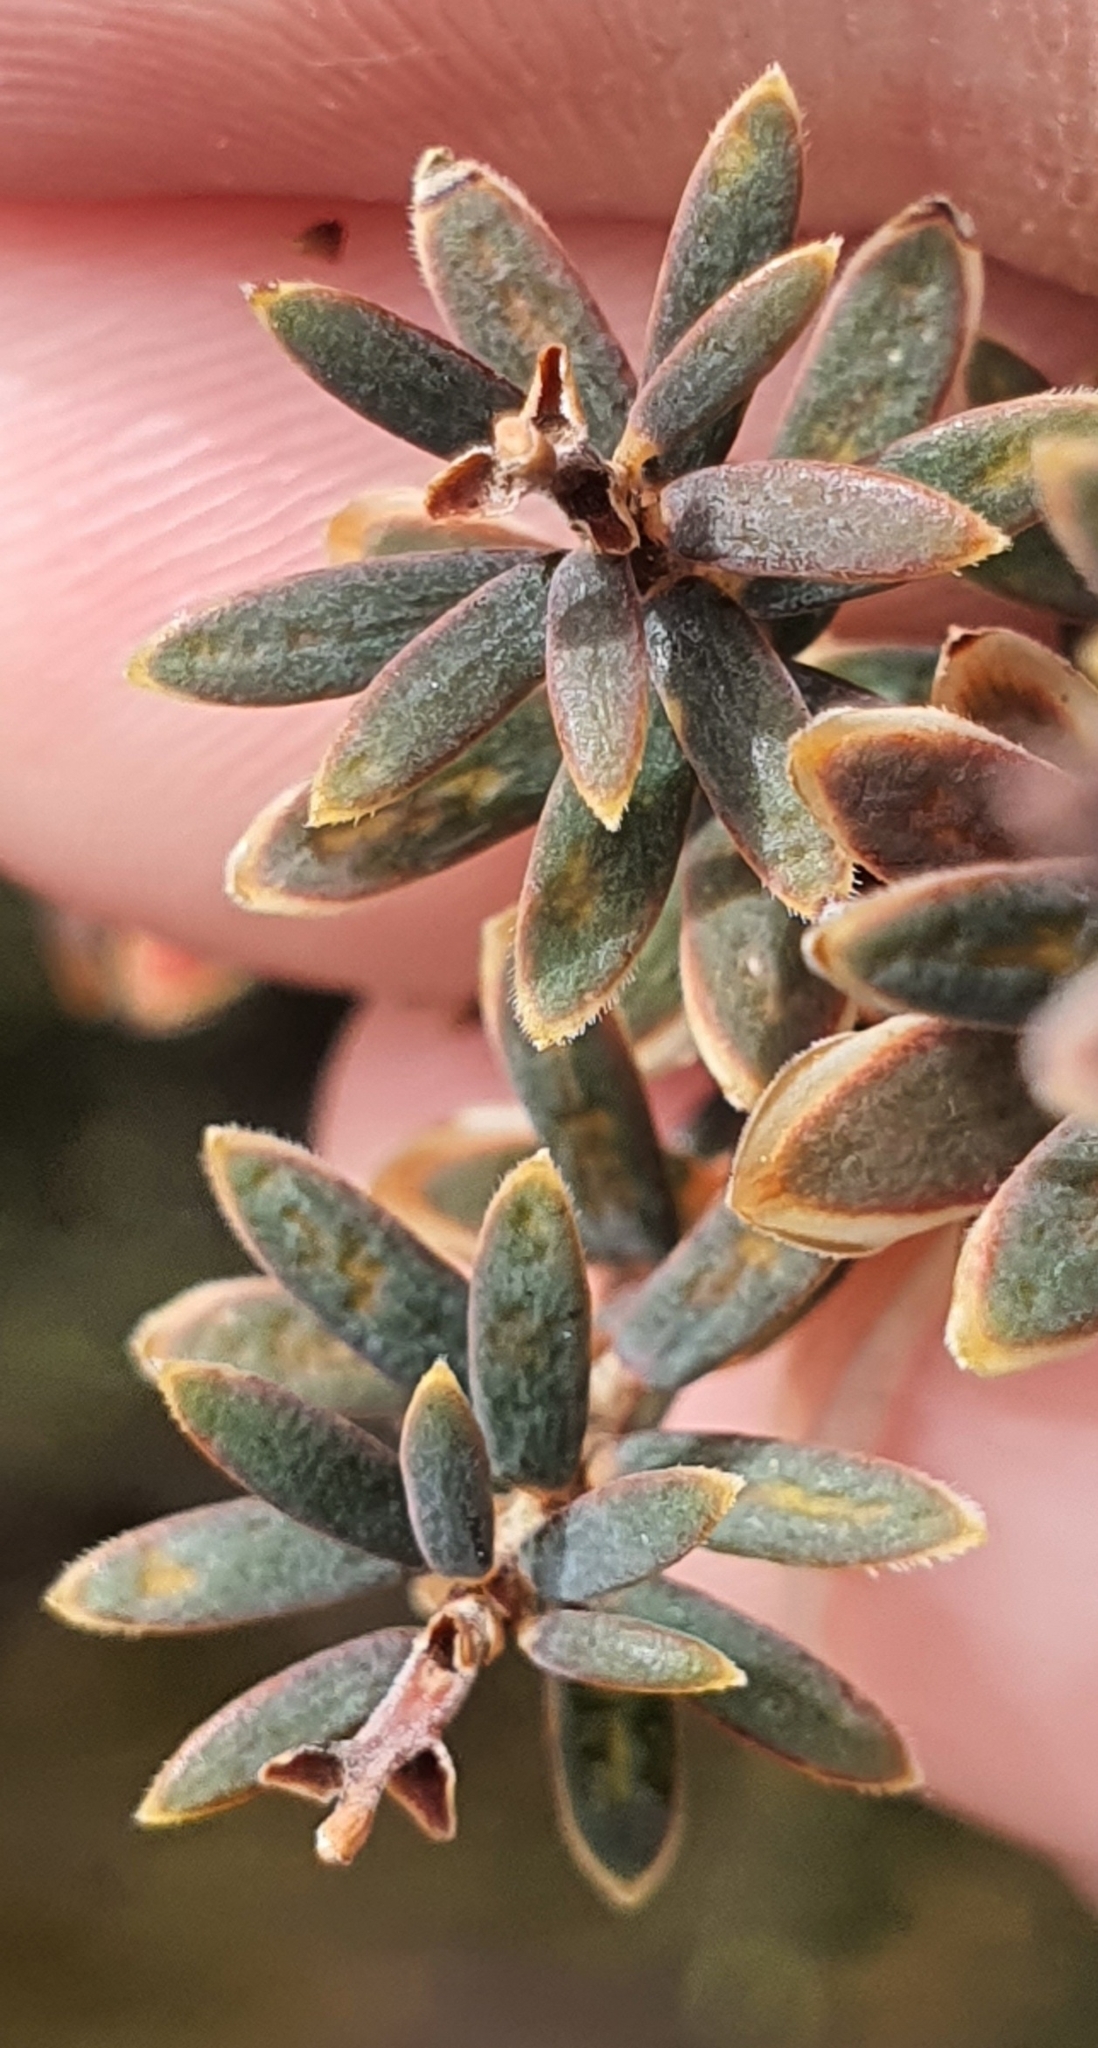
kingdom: Plantae
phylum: Tracheophyta
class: Magnoliopsida
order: Ericales
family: Ericaceae
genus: Acrothamnus
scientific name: Acrothamnus colensoi
